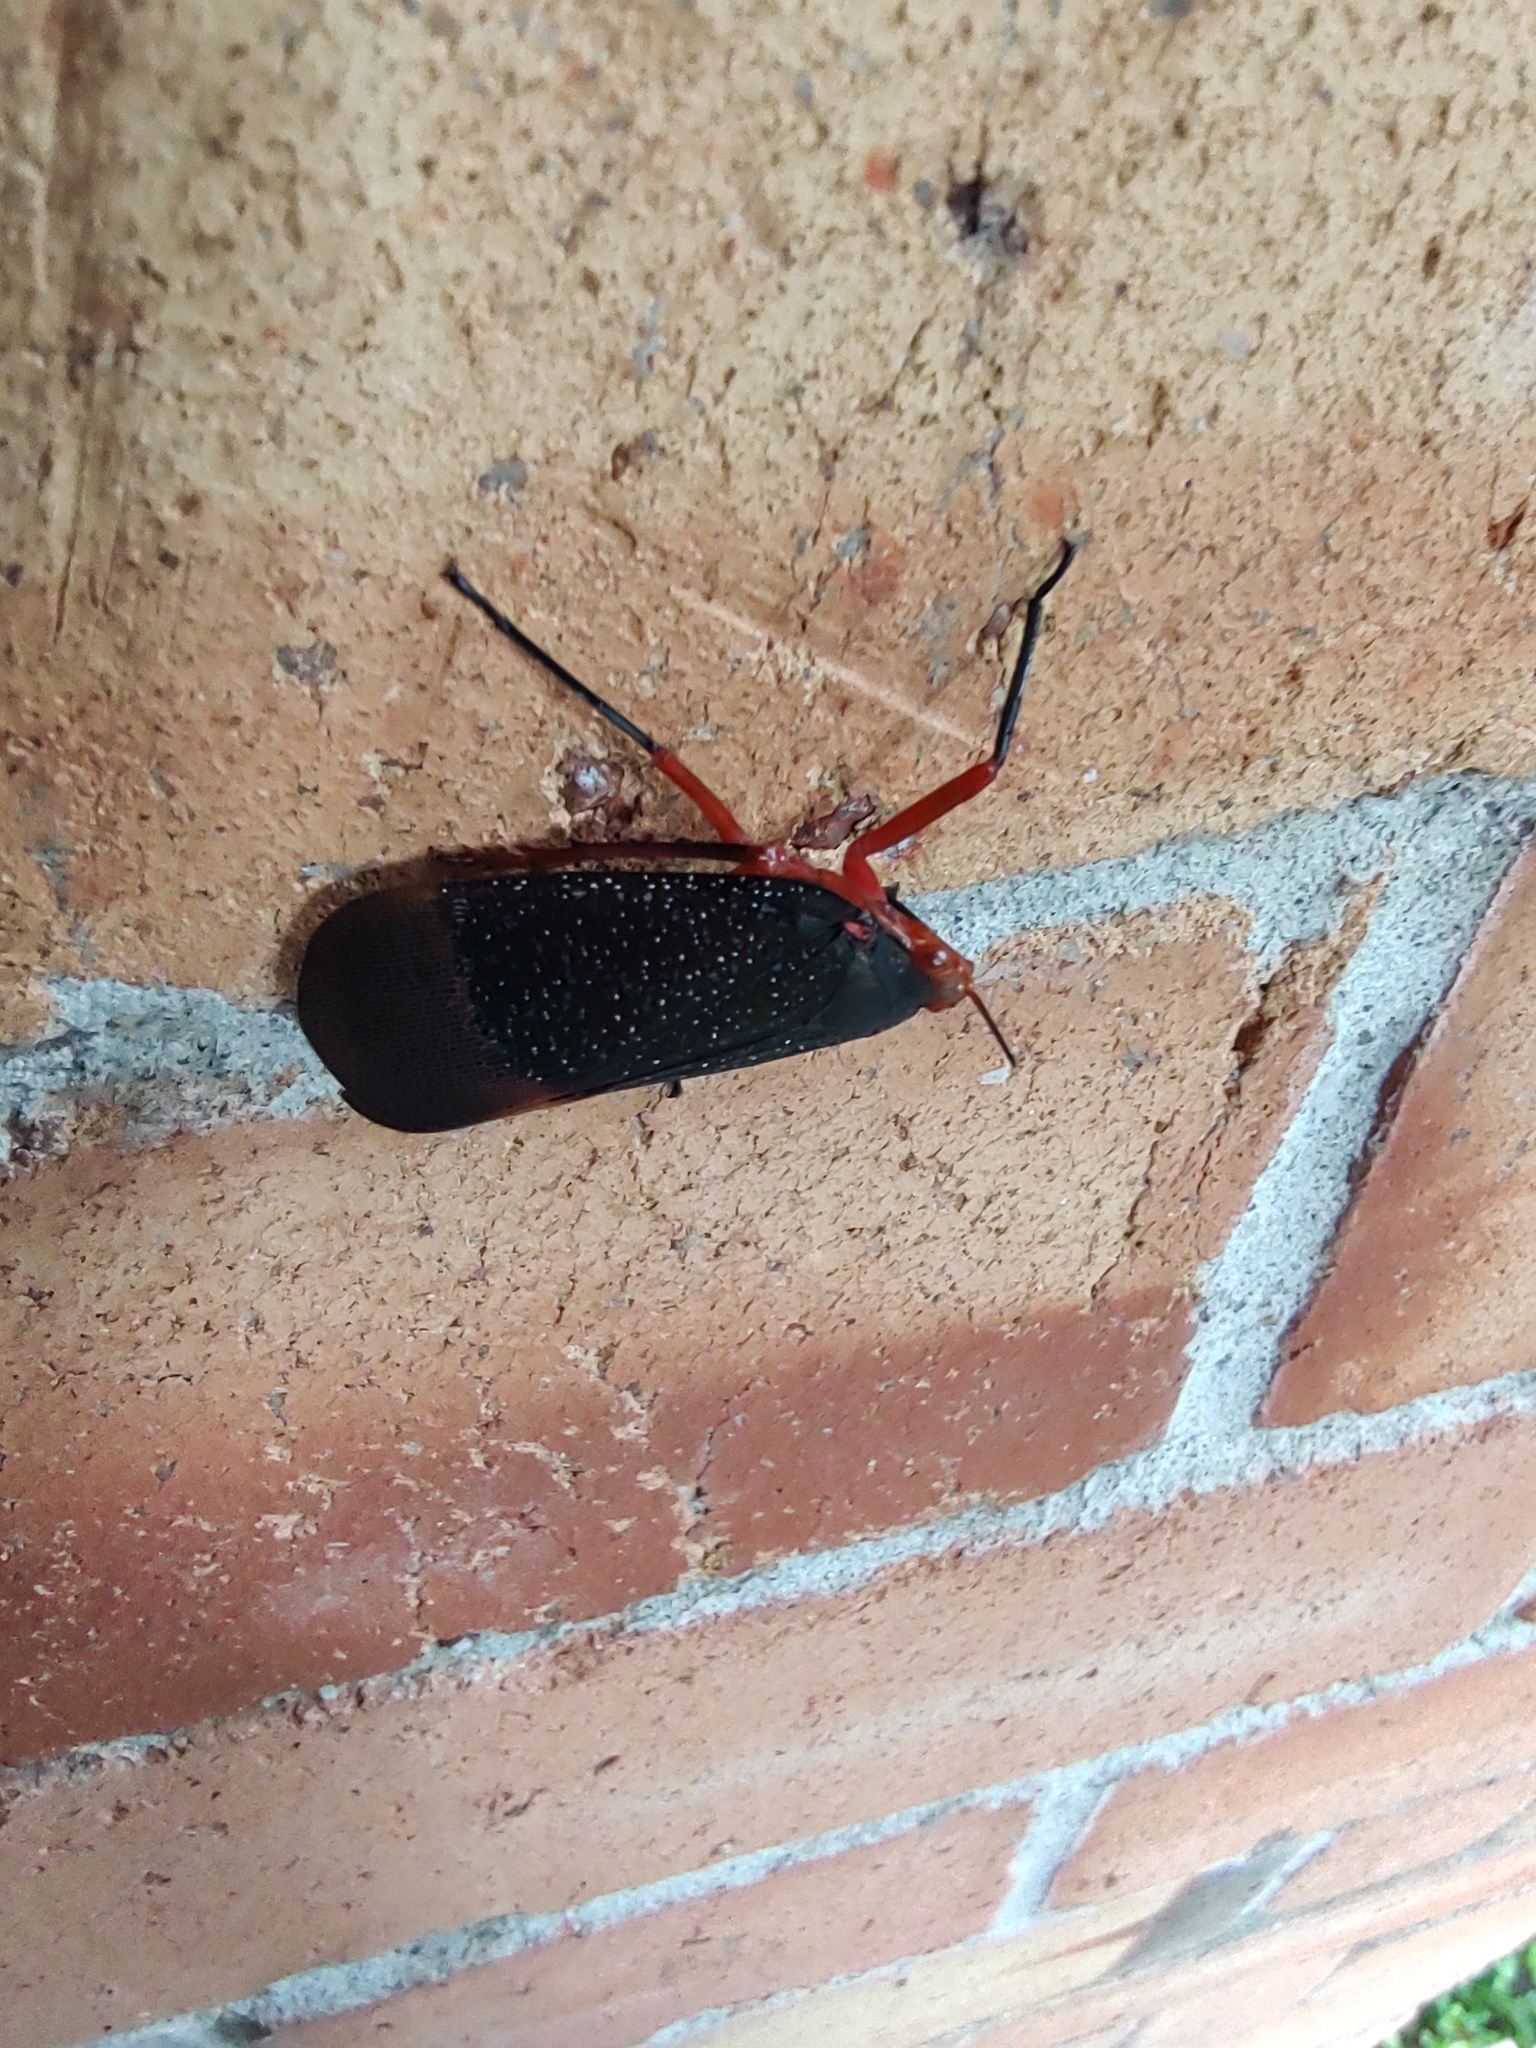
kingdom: Animalia
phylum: Arthropoda
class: Insecta
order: Hemiptera
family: Fulgoridae
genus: Kalidasa
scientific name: Kalidasa lanata
